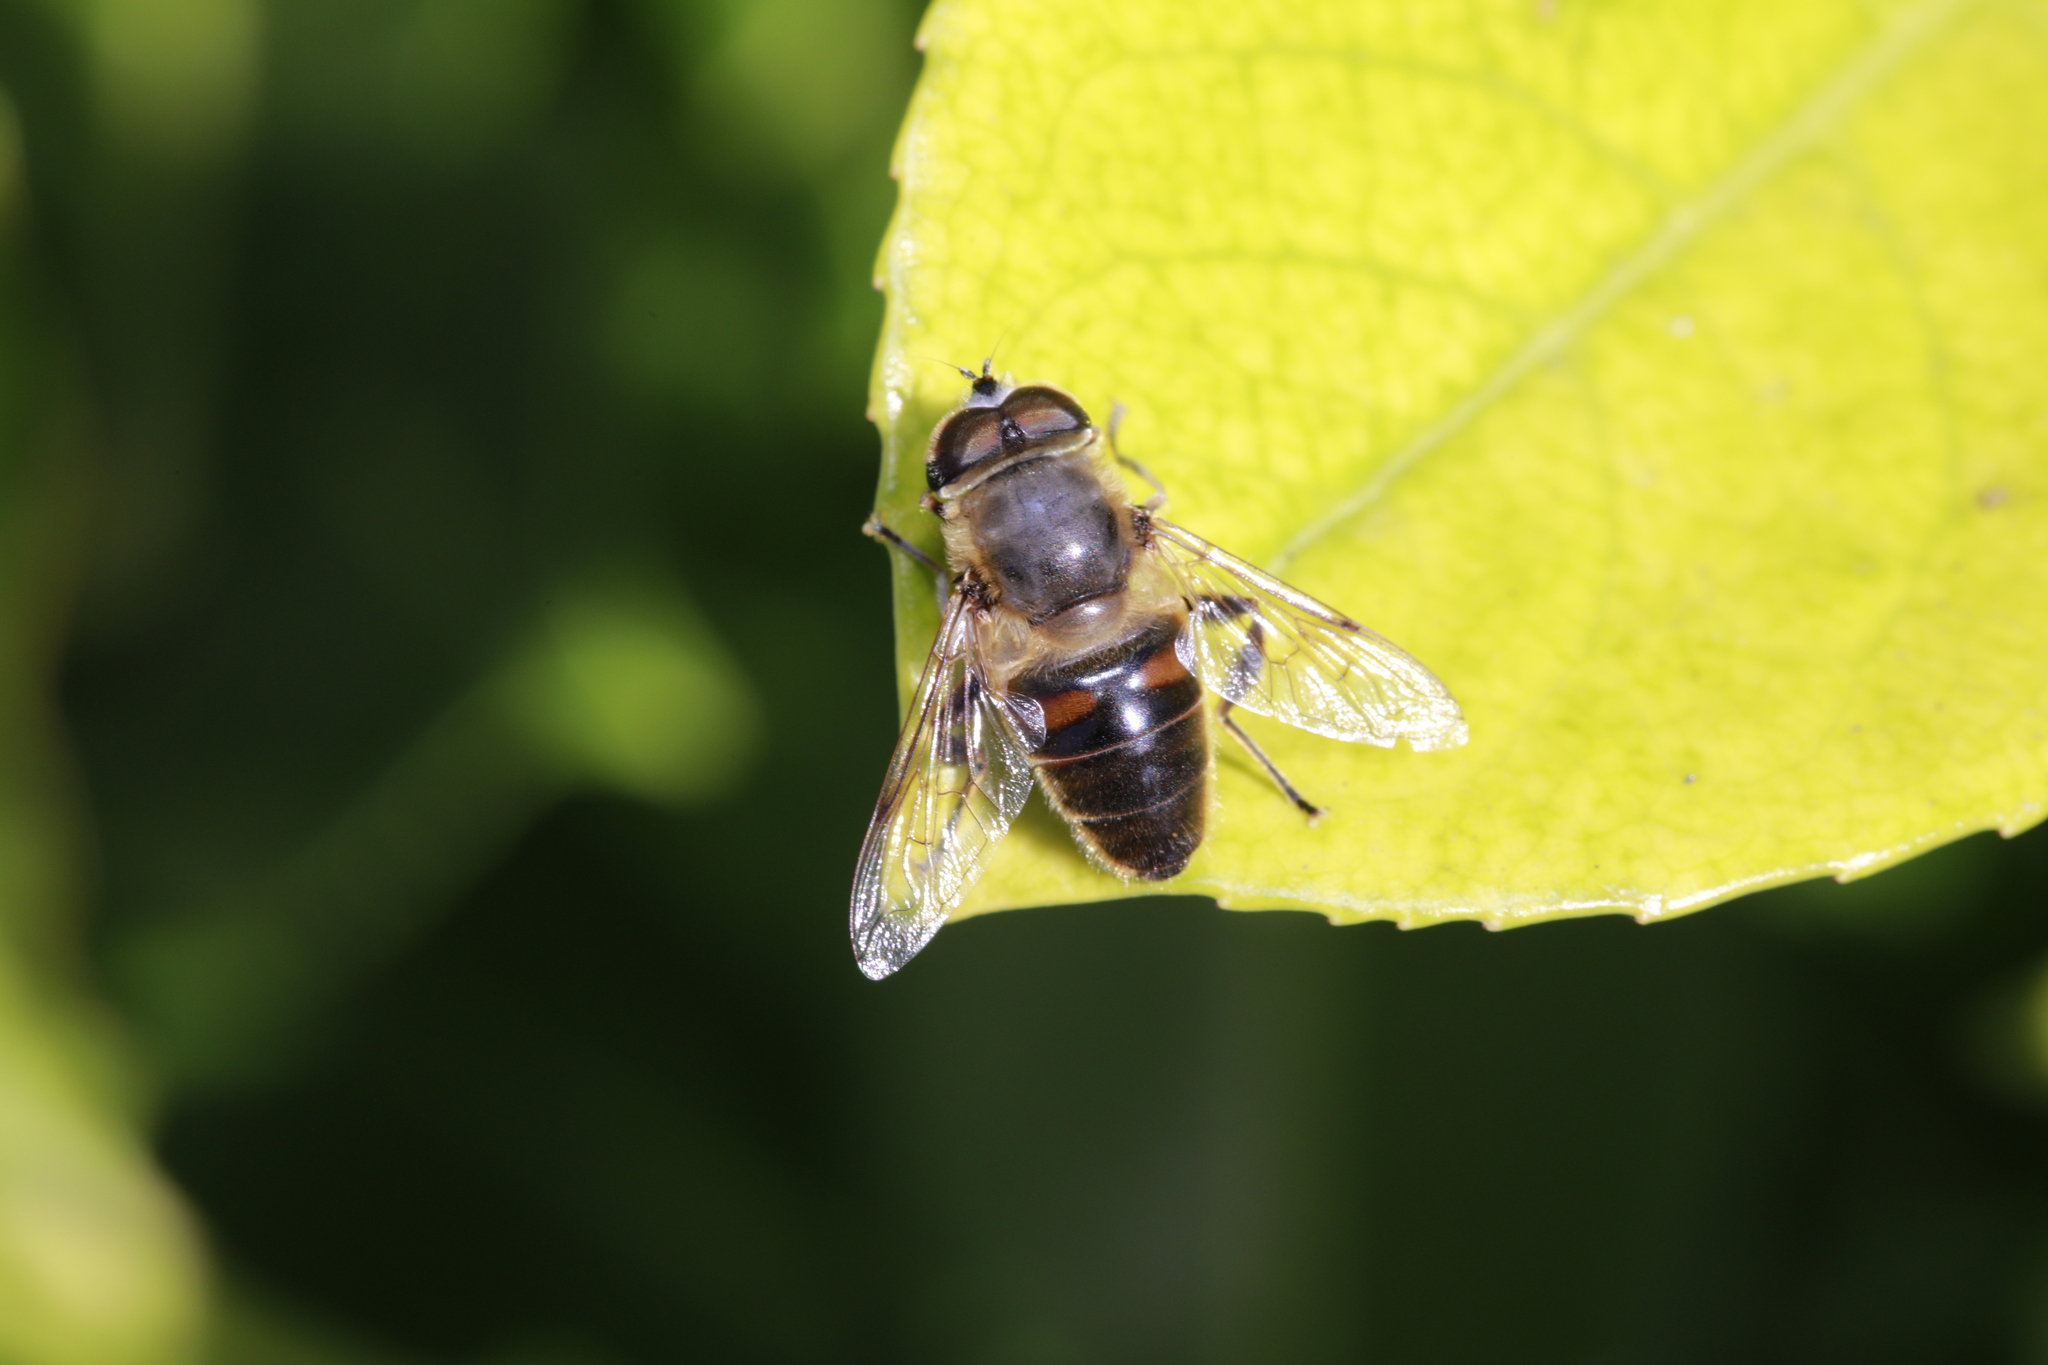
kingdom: Animalia
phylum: Arthropoda
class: Insecta
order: Diptera
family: Syrphidae
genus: Eristalis
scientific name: Eristalis tenax
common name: Drone fly
